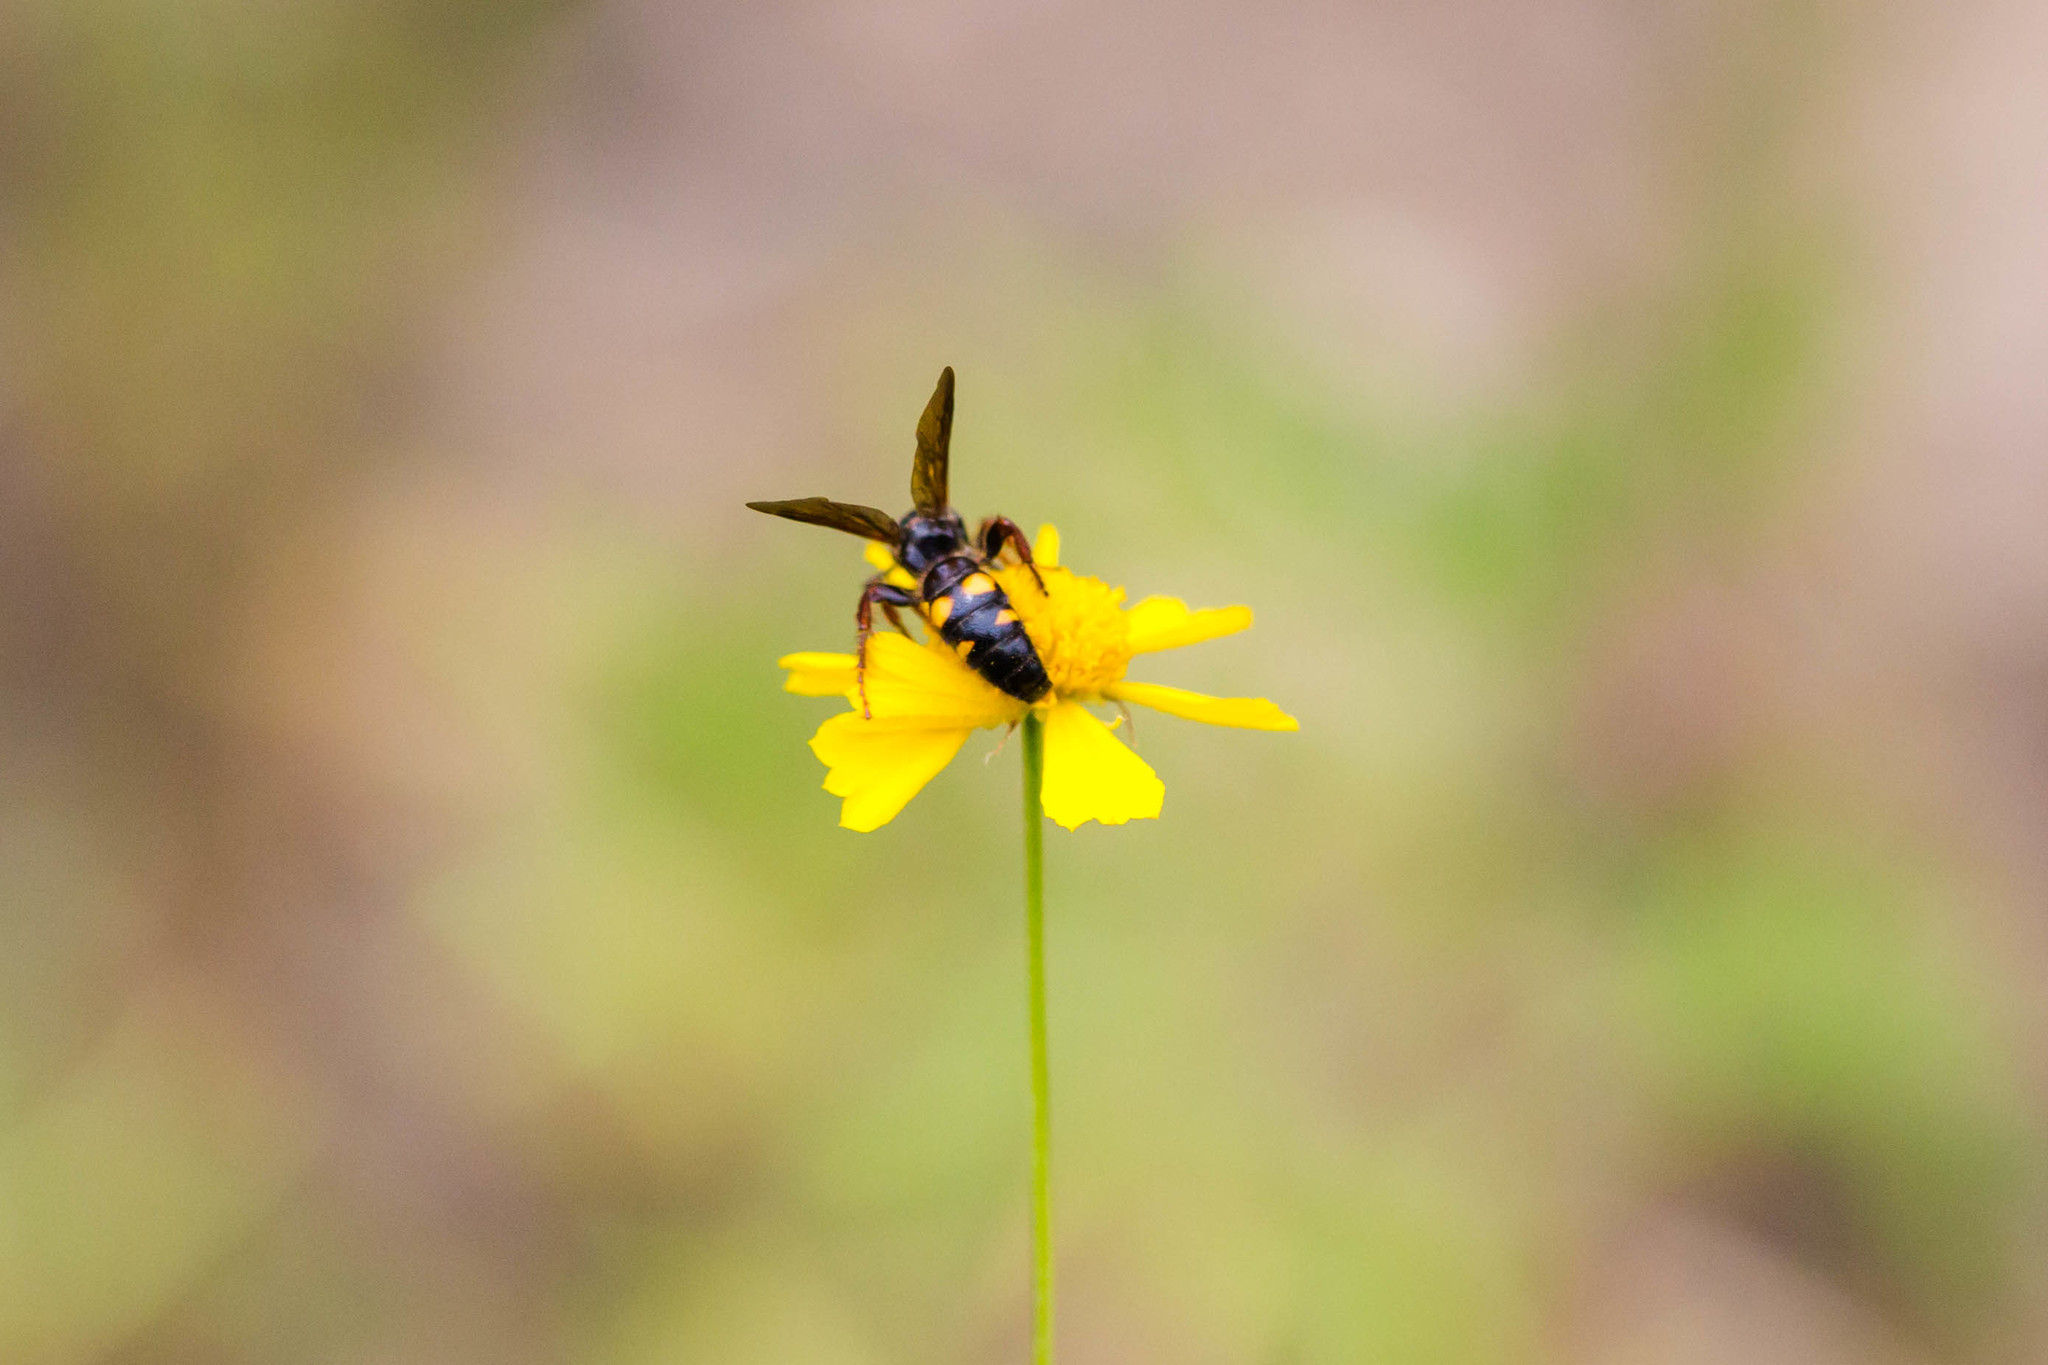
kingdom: Animalia
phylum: Arthropoda
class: Insecta
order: Hymenoptera
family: Scoliidae
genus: Scolia
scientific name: Scolia nobilitata
